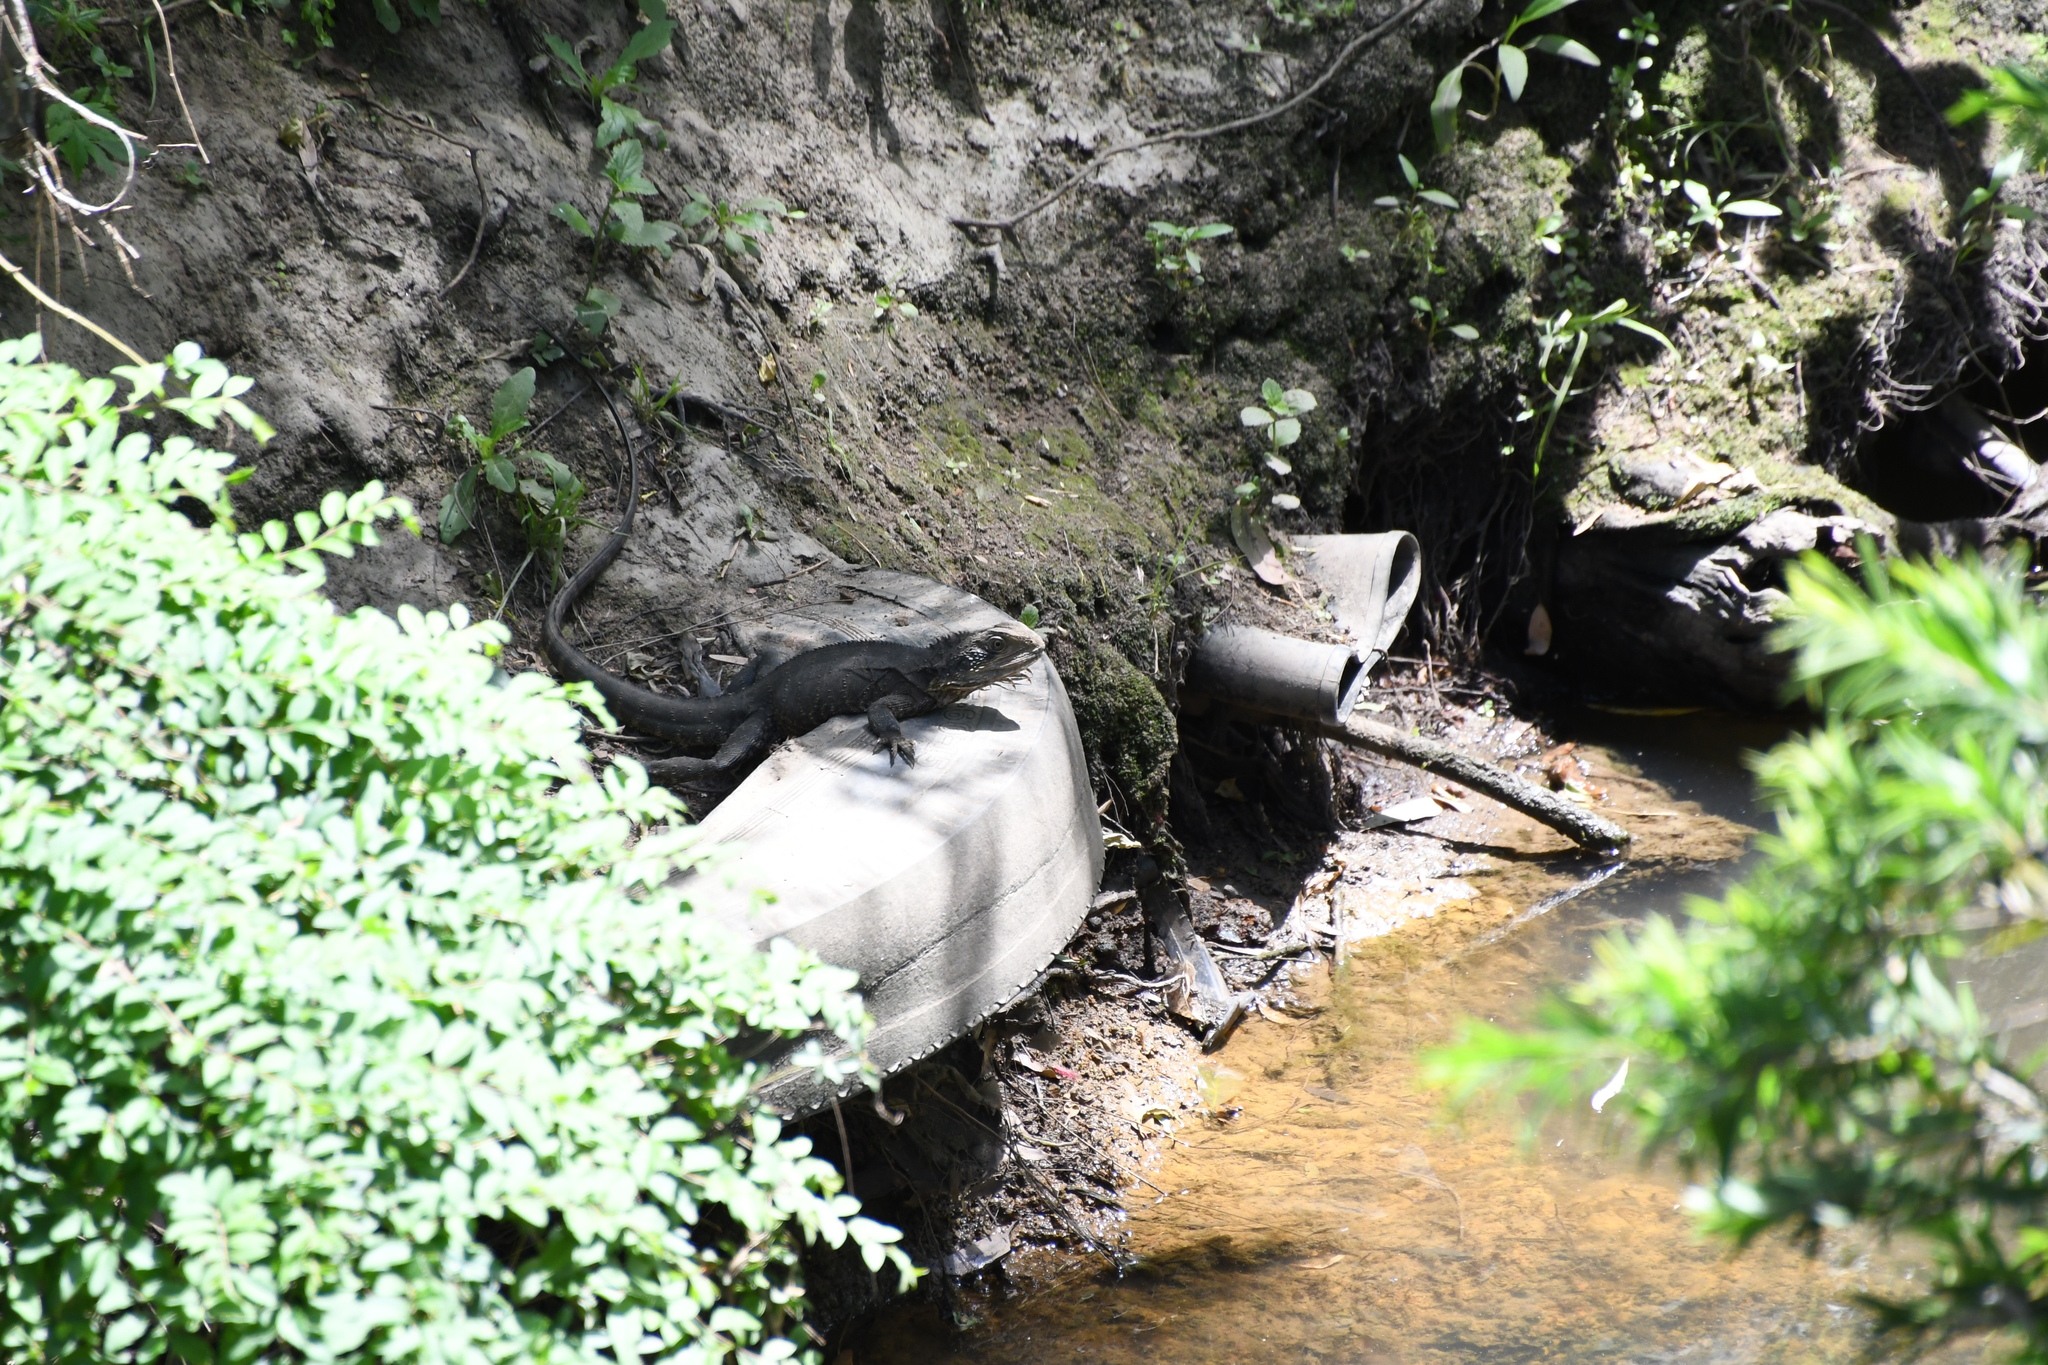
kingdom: Animalia
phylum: Chordata
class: Squamata
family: Agamidae
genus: Intellagama
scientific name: Intellagama lesueurii
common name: Eastern water dragon
